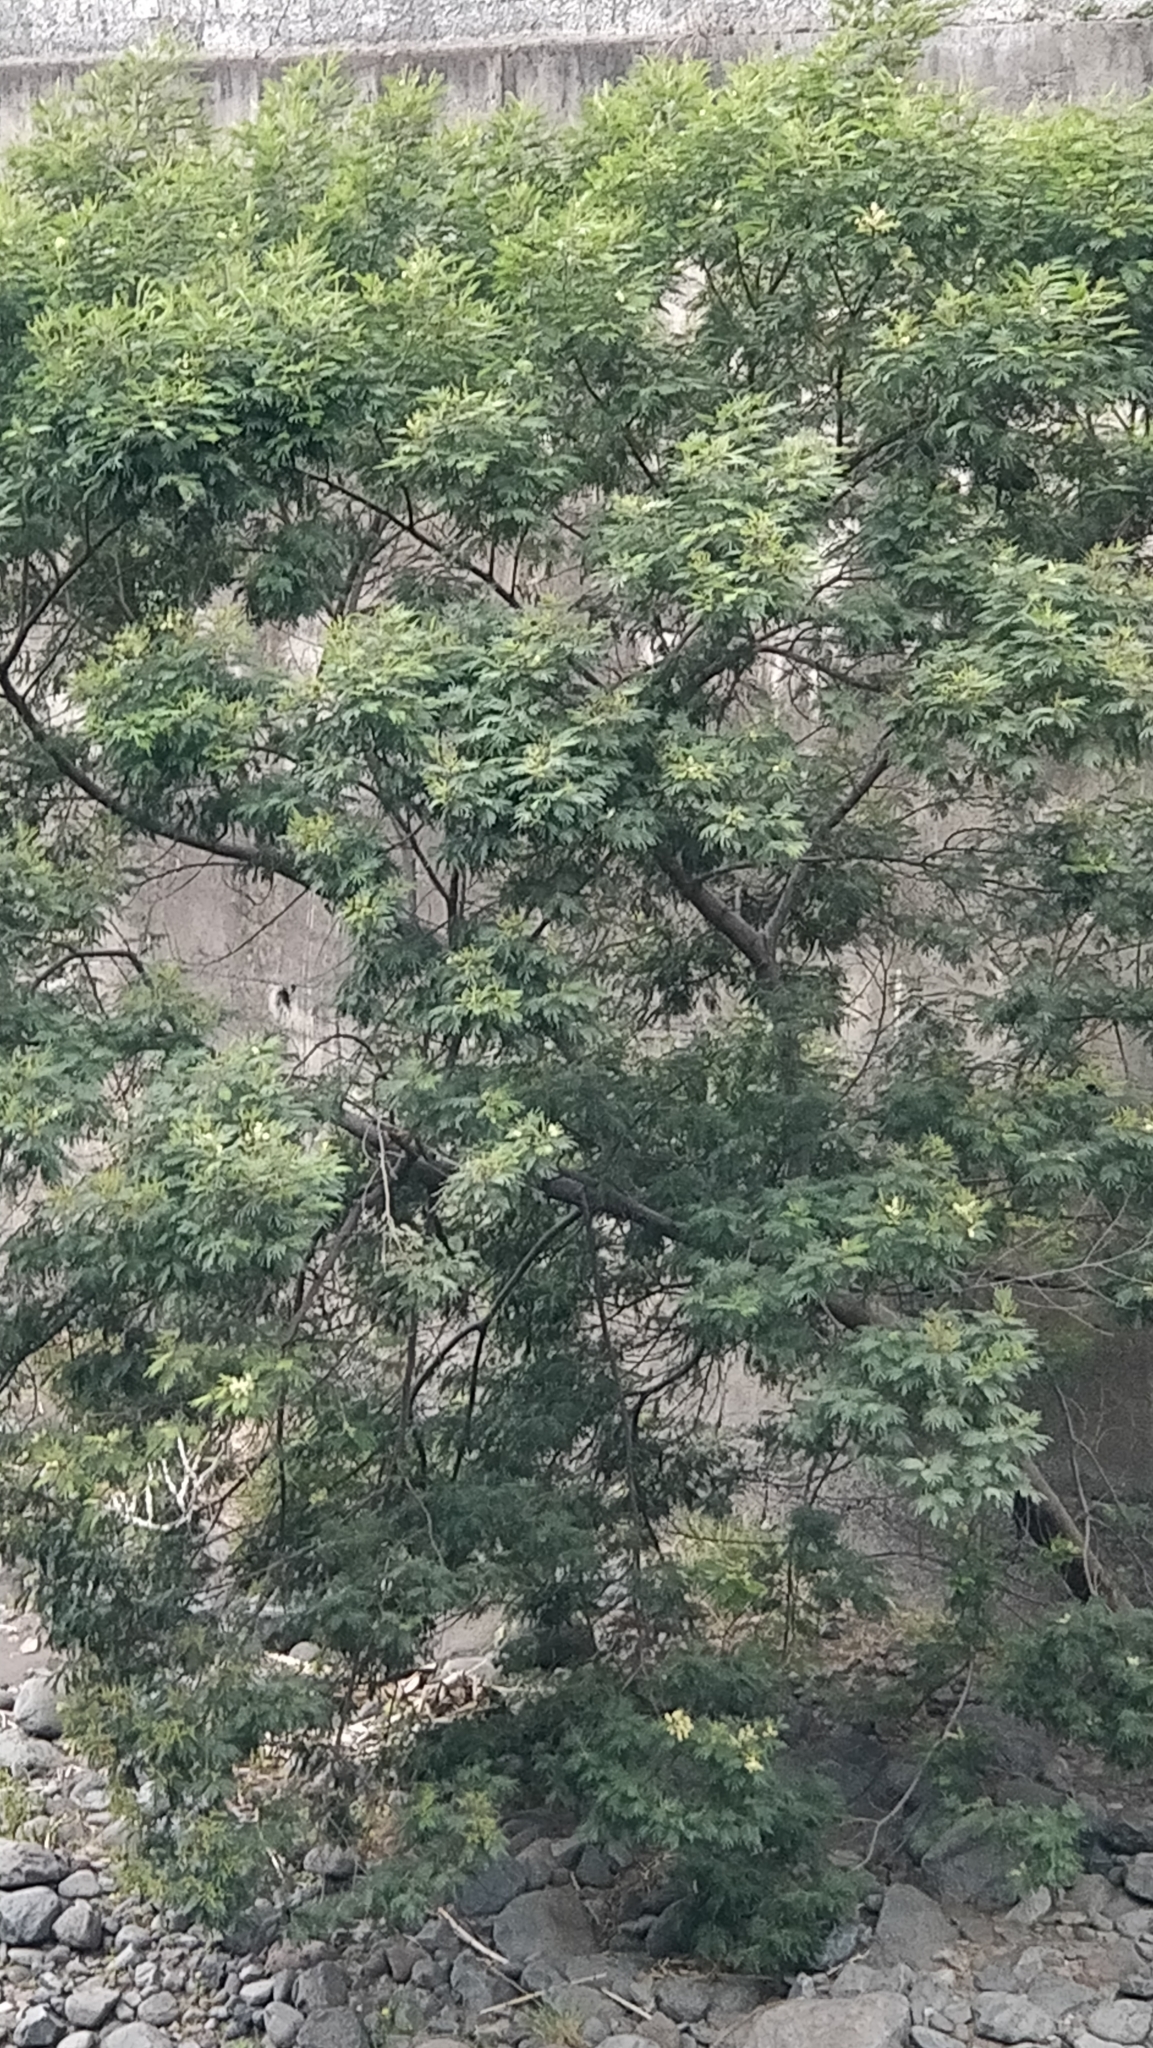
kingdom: Plantae
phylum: Tracheophyta
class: Magnoliopsida
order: Fabales
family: Fabaceae
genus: Acacia
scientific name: Acacia mearnsii
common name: Black wattle
